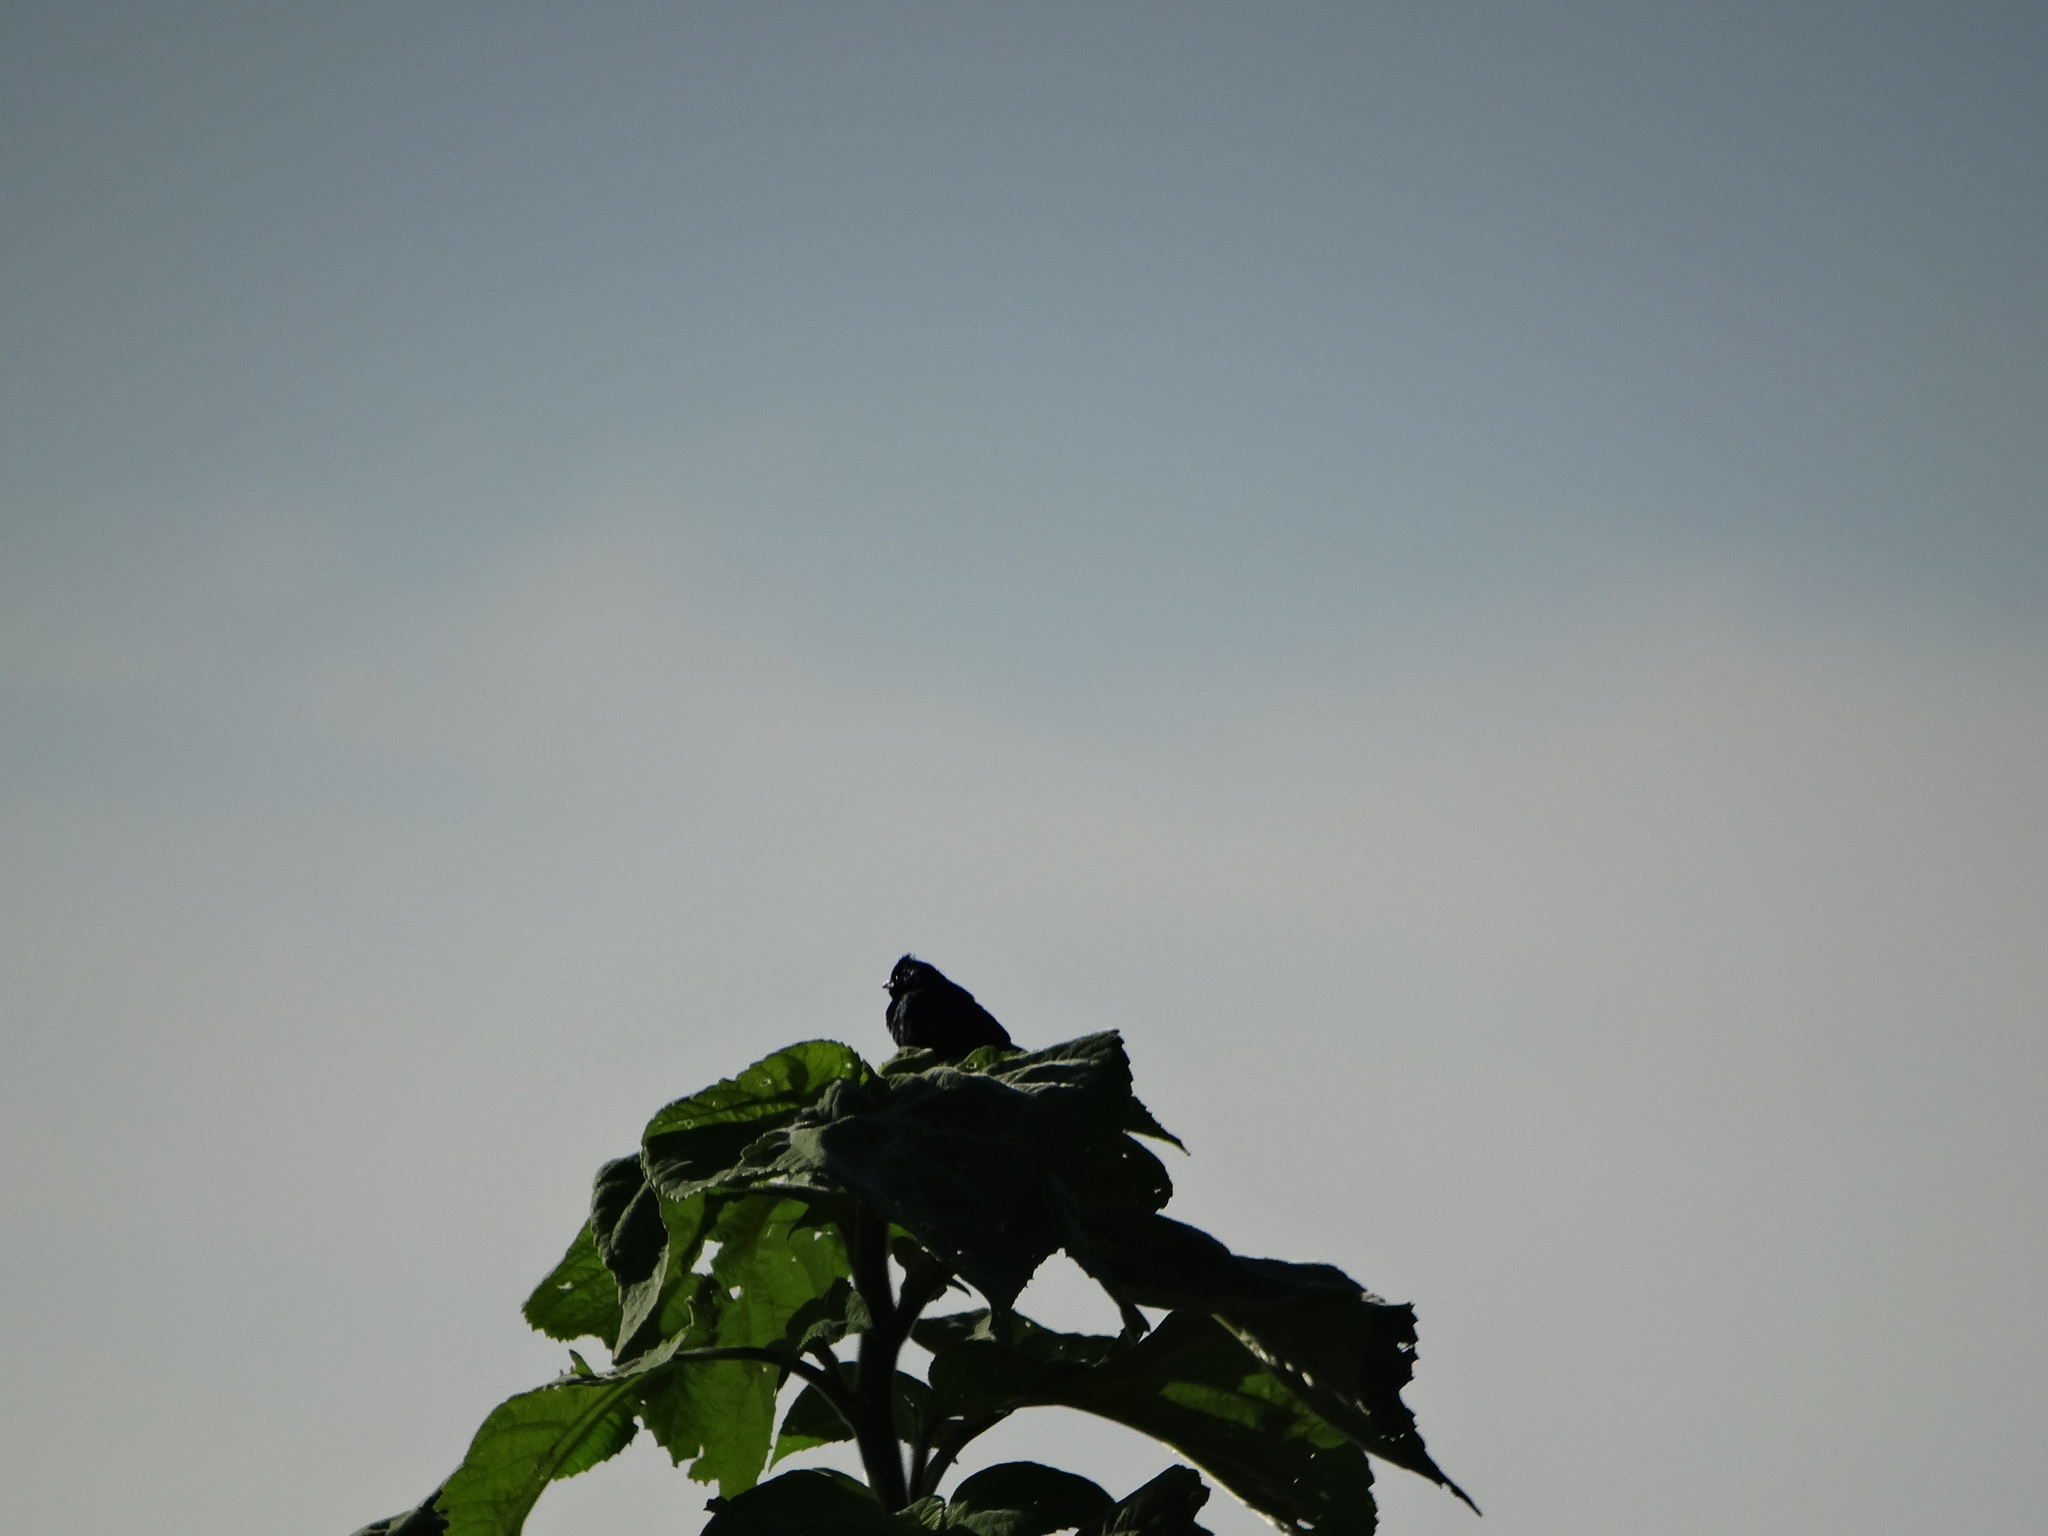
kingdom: Animalia
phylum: Chordata
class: Aves
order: Passeriformes
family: Thraupidae
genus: Volatinia
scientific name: Volatinia jacarina
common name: Blue-black grassquit
